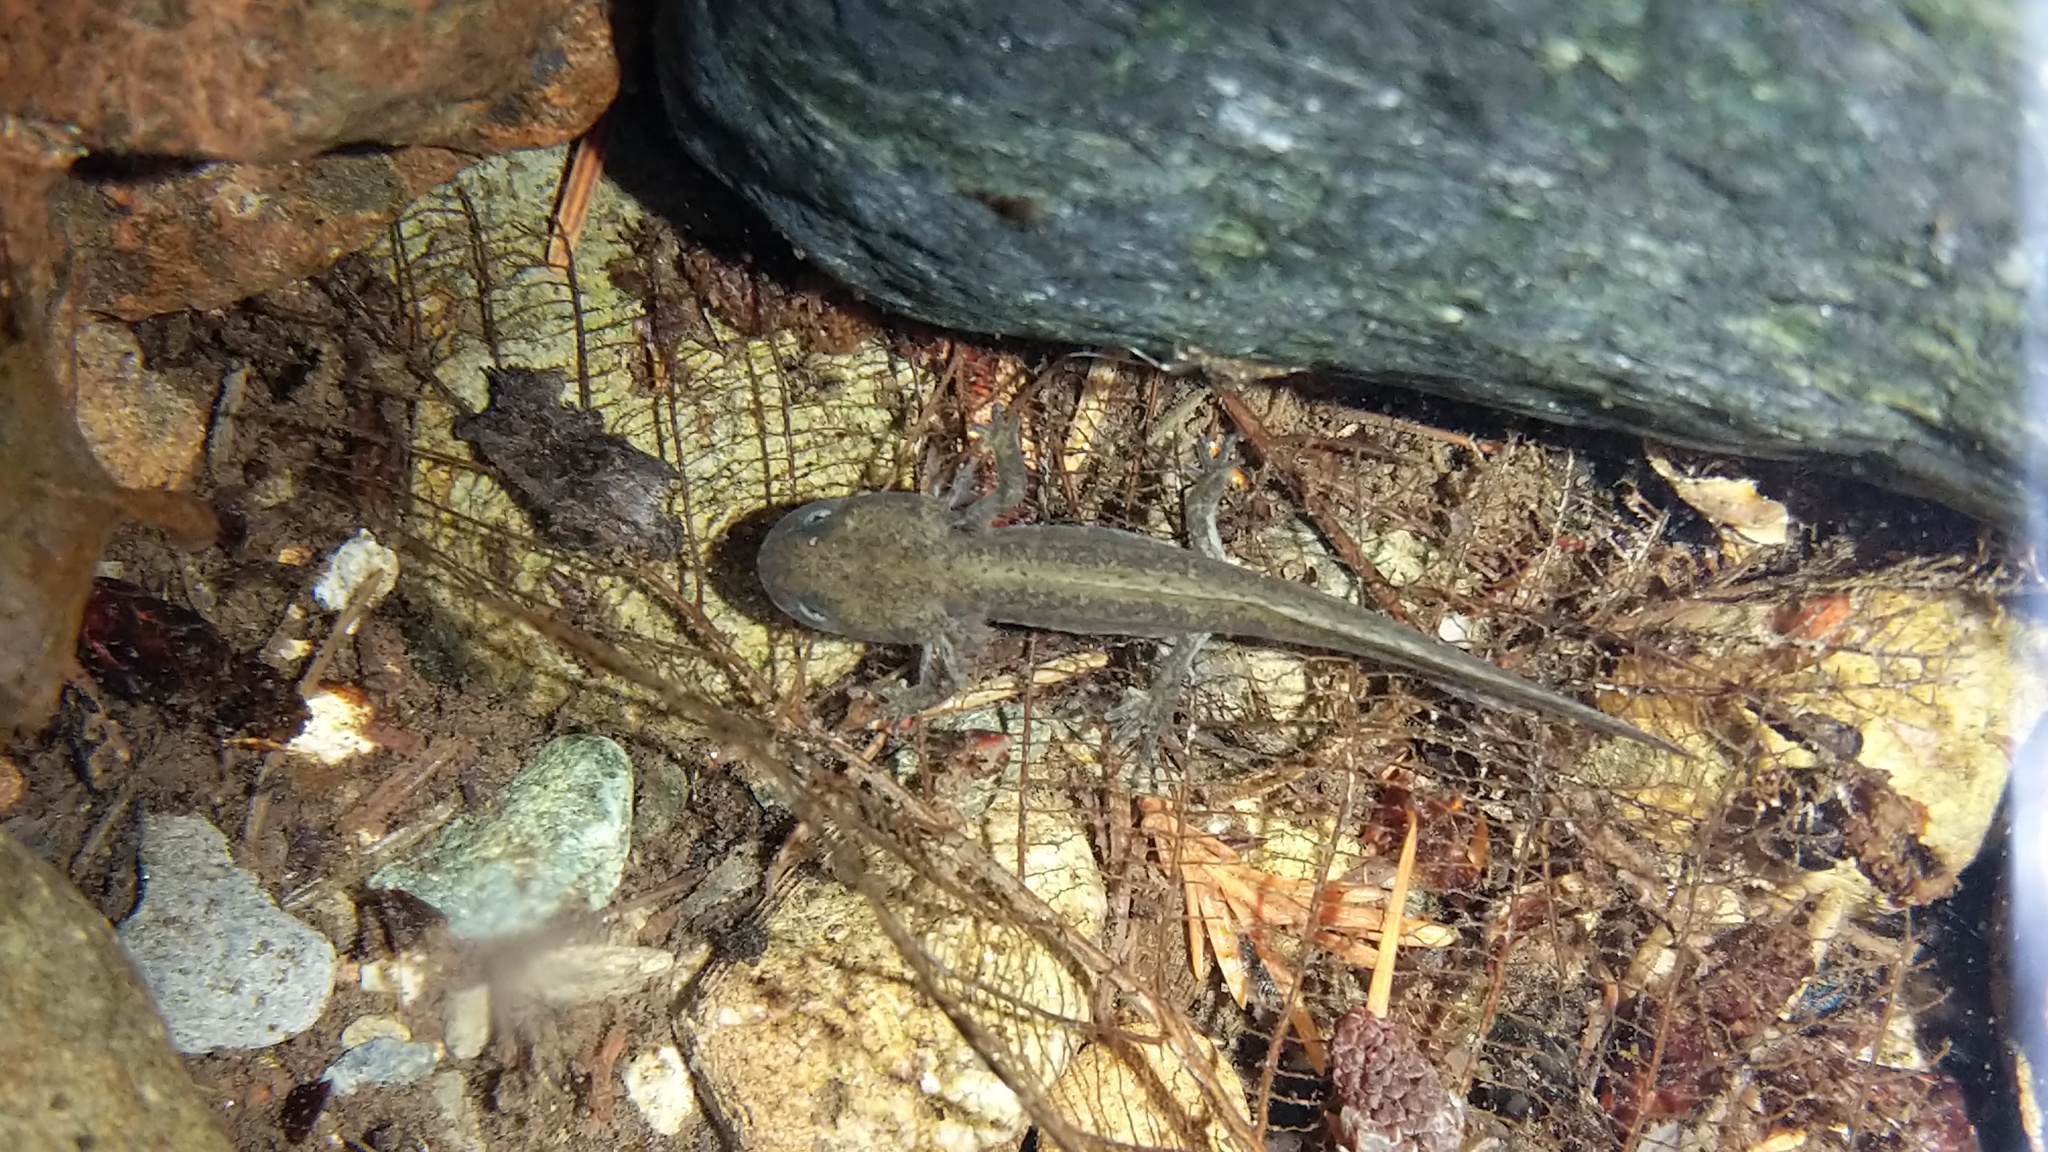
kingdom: Animalia
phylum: Chordata
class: Amphibia
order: Caudata
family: Salamandridae
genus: Taricha
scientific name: Taricha torosa
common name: California newt
